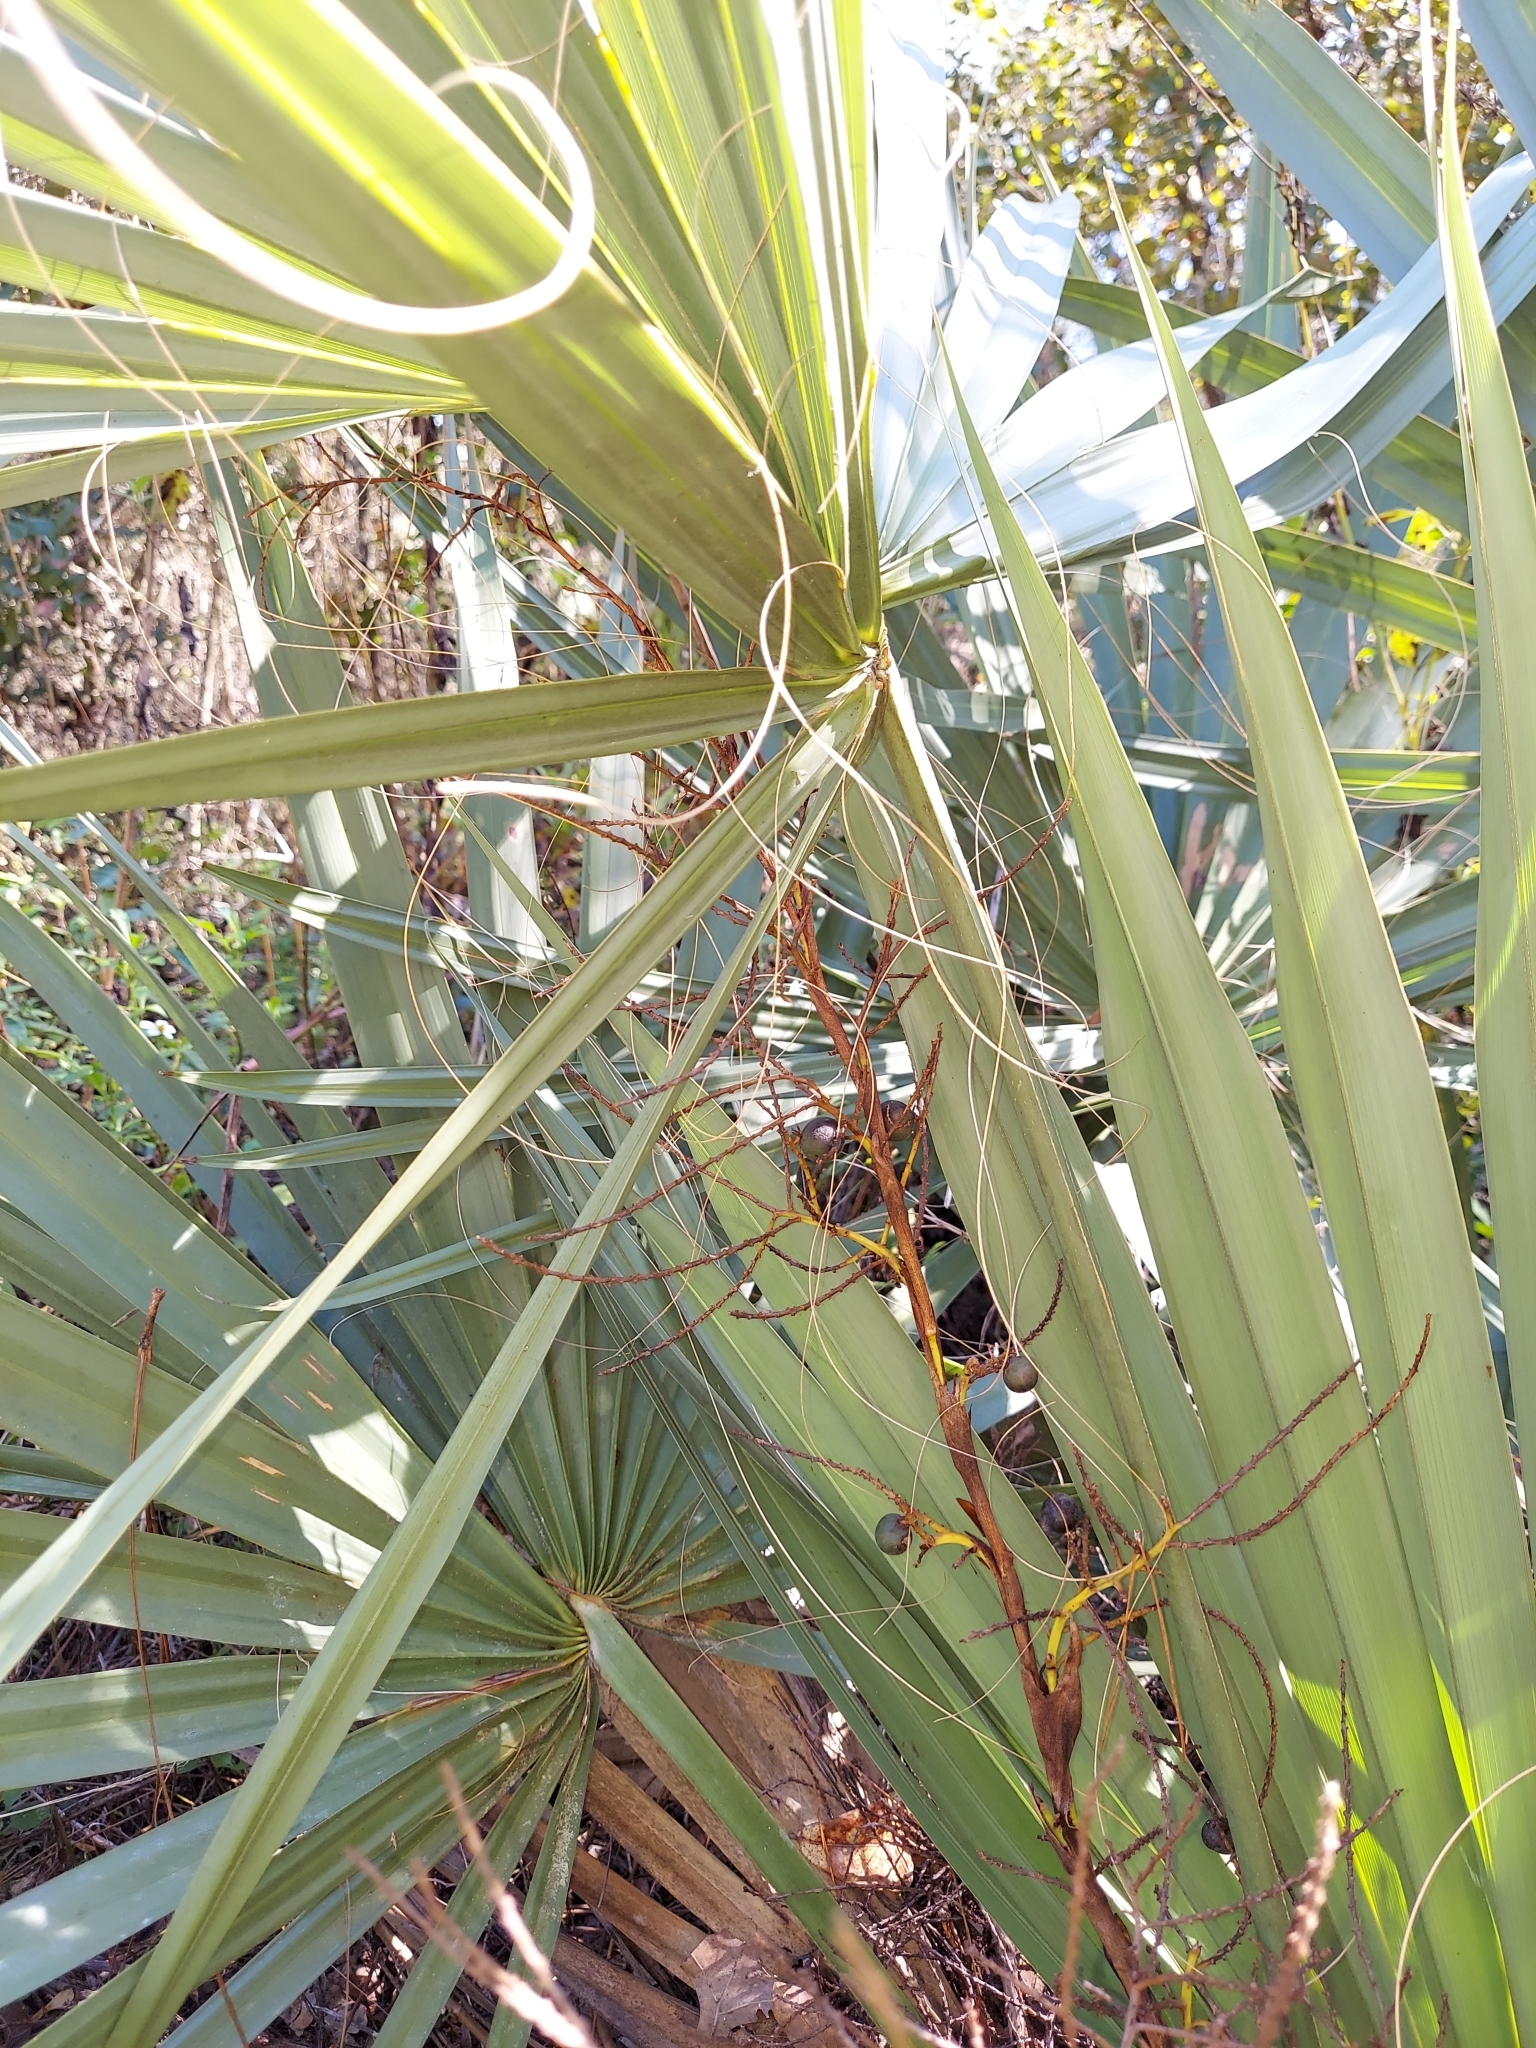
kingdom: Plantae
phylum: Tracheophyta
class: Liliopsida
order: Arecales
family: Arecaceae
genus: Sabal
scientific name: Sabal etonia
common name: Dwarf palmetto
